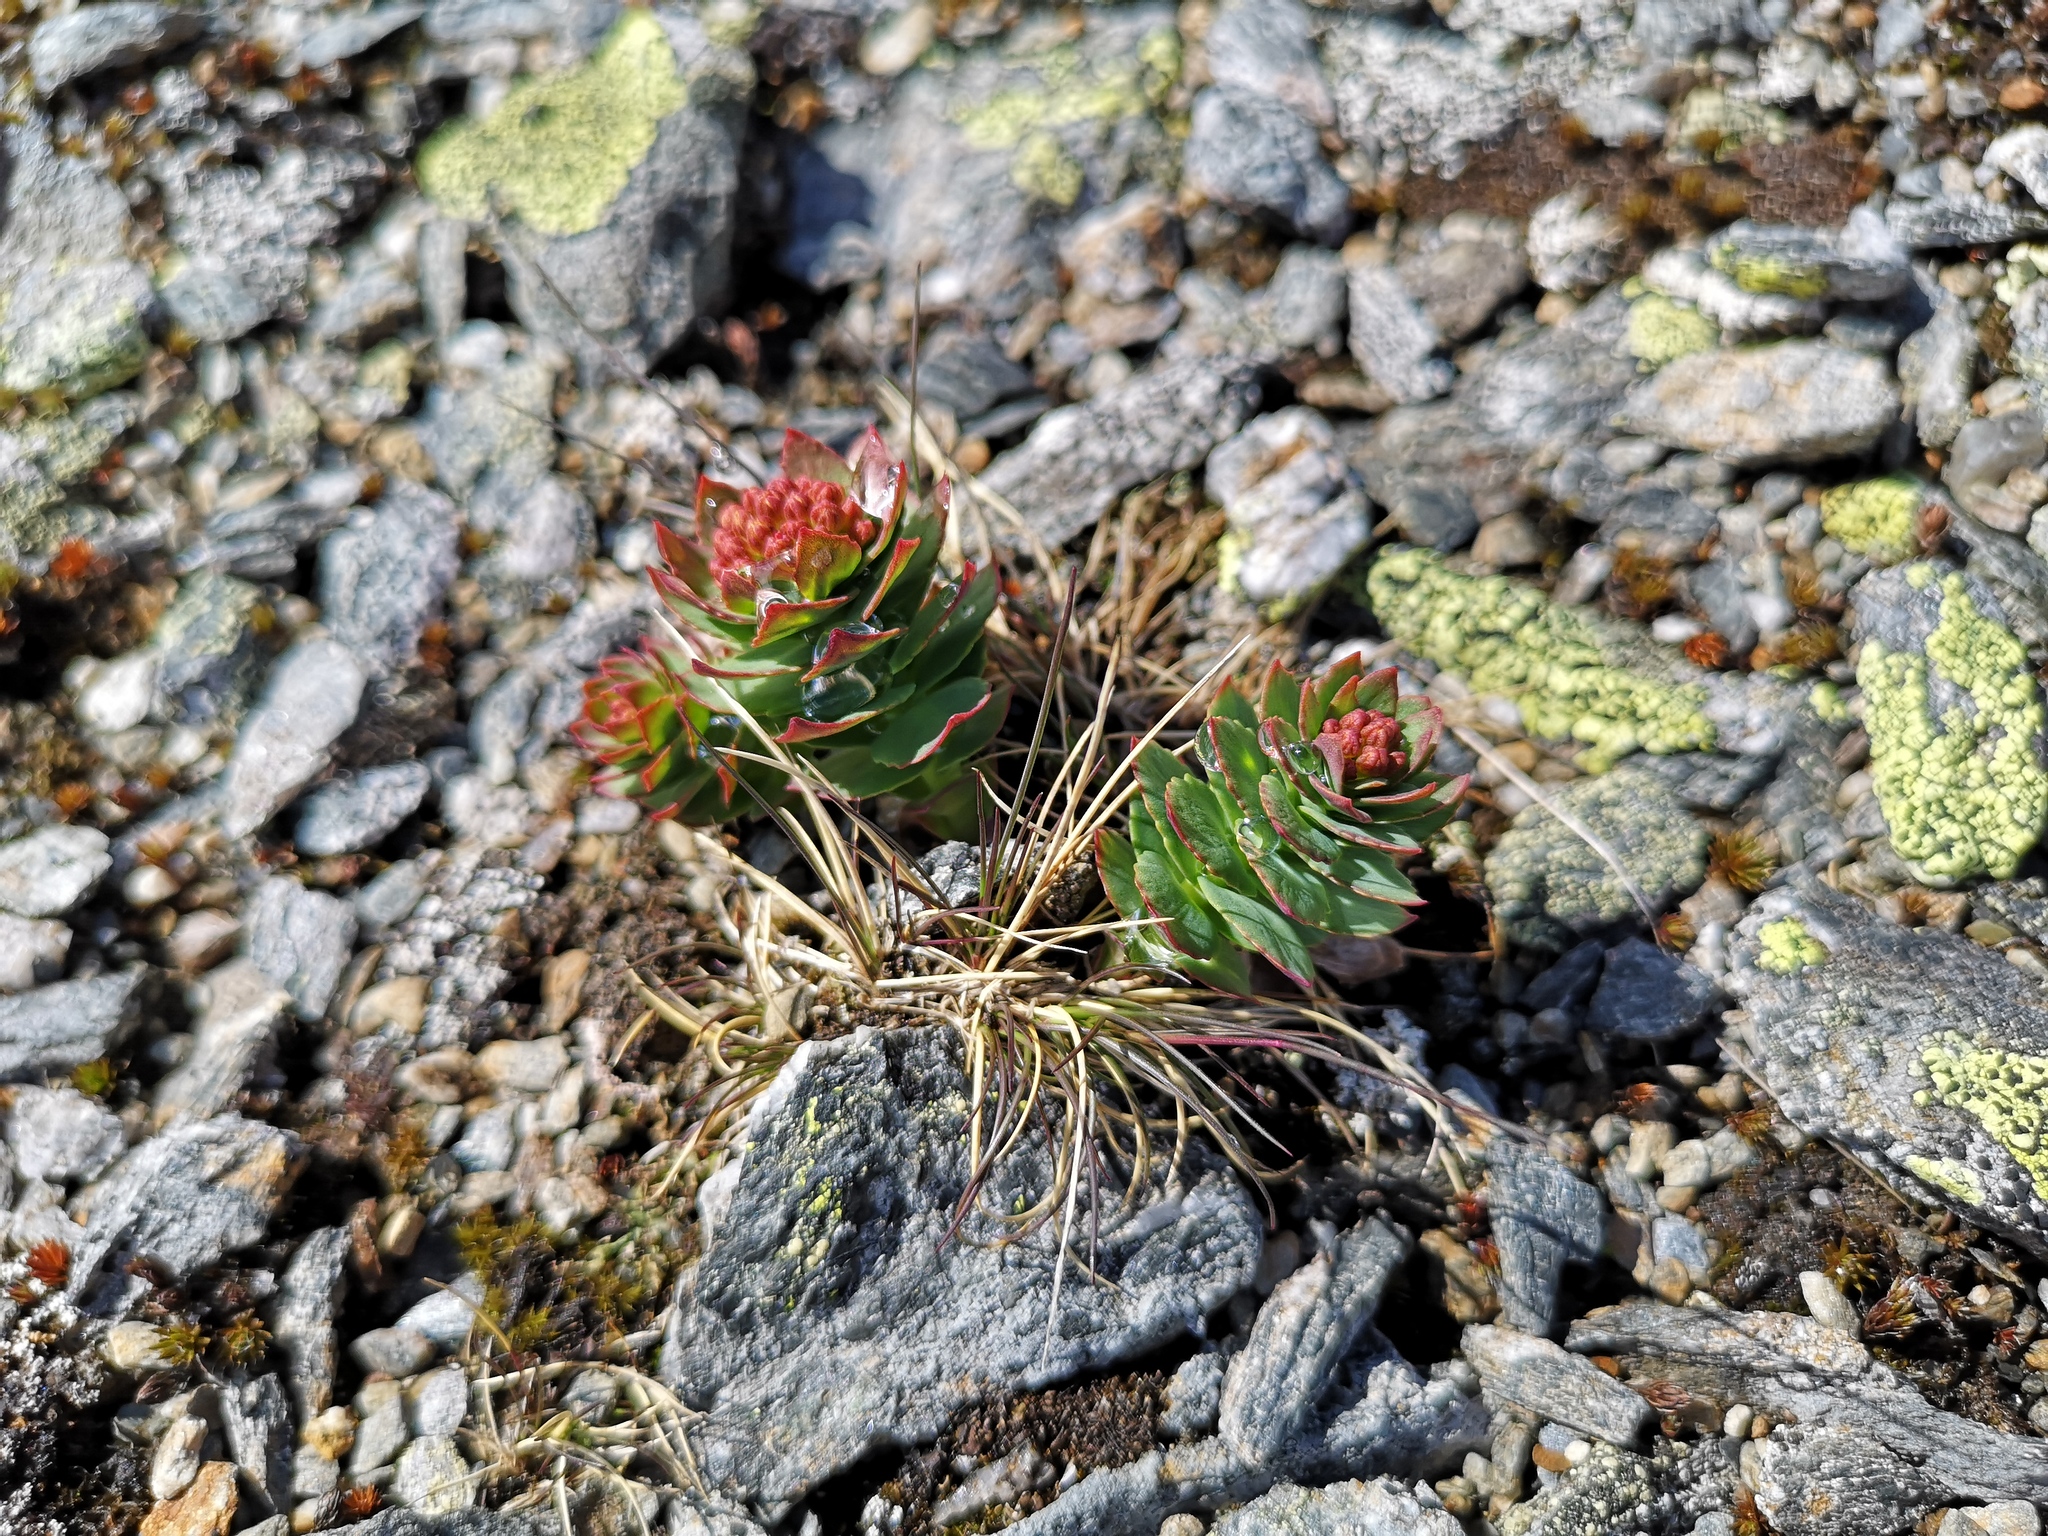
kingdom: Plantae
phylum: Tracheophyta
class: Magnoliopsida
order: Saxifragales
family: Crassulaceae
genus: Rhodiola
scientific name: Rhodiola rosea
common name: Roseroot
